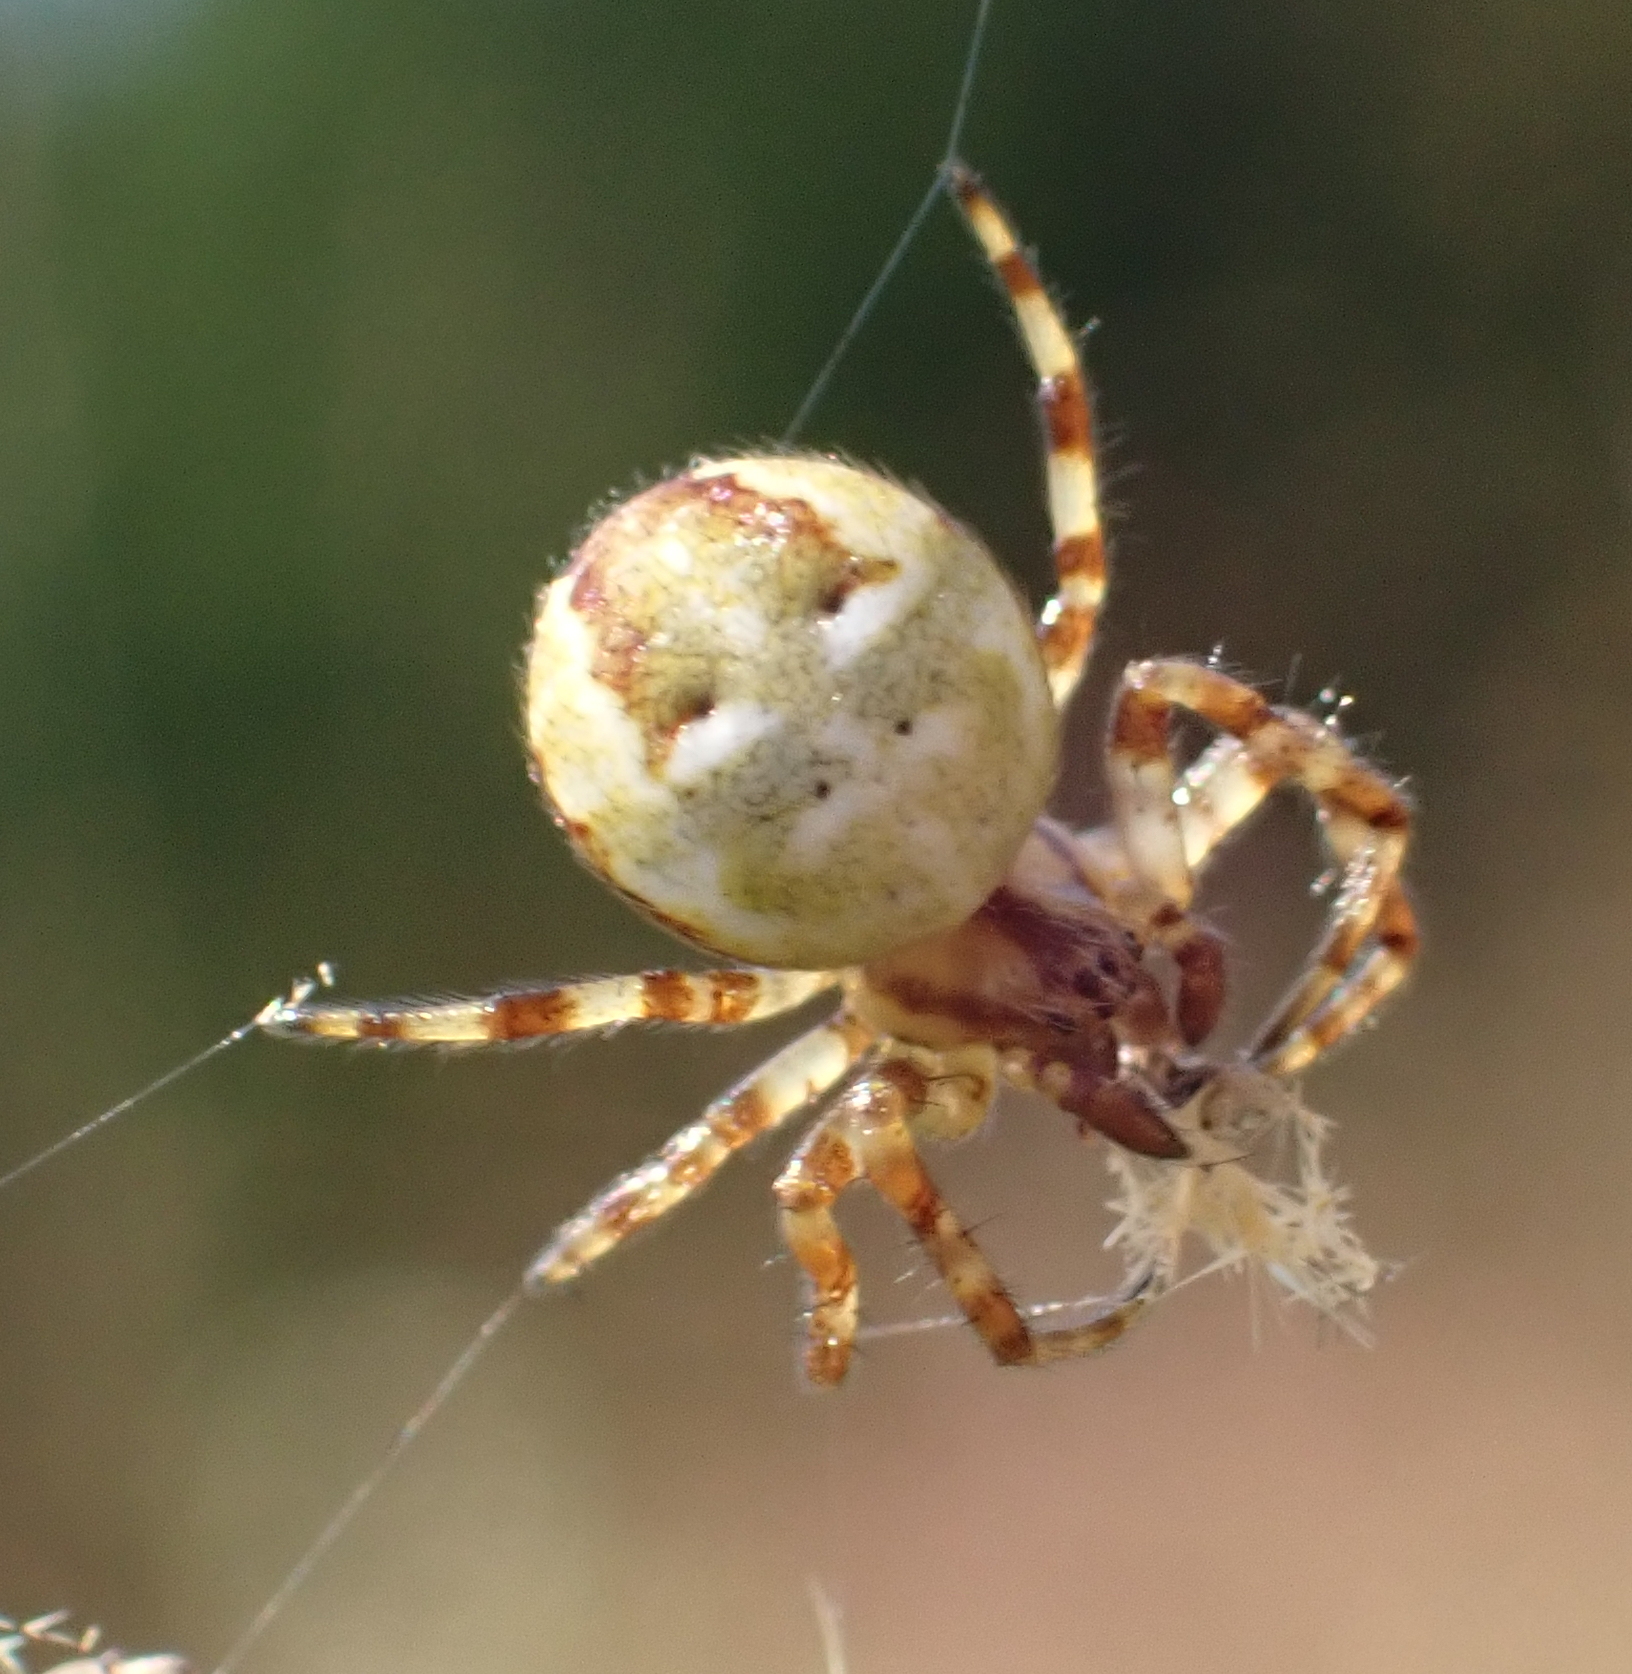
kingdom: Animalia
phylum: Arthropoda
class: Arachnida
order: Araneae
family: Araneidae
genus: Araneus
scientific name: Araneus quadratus
